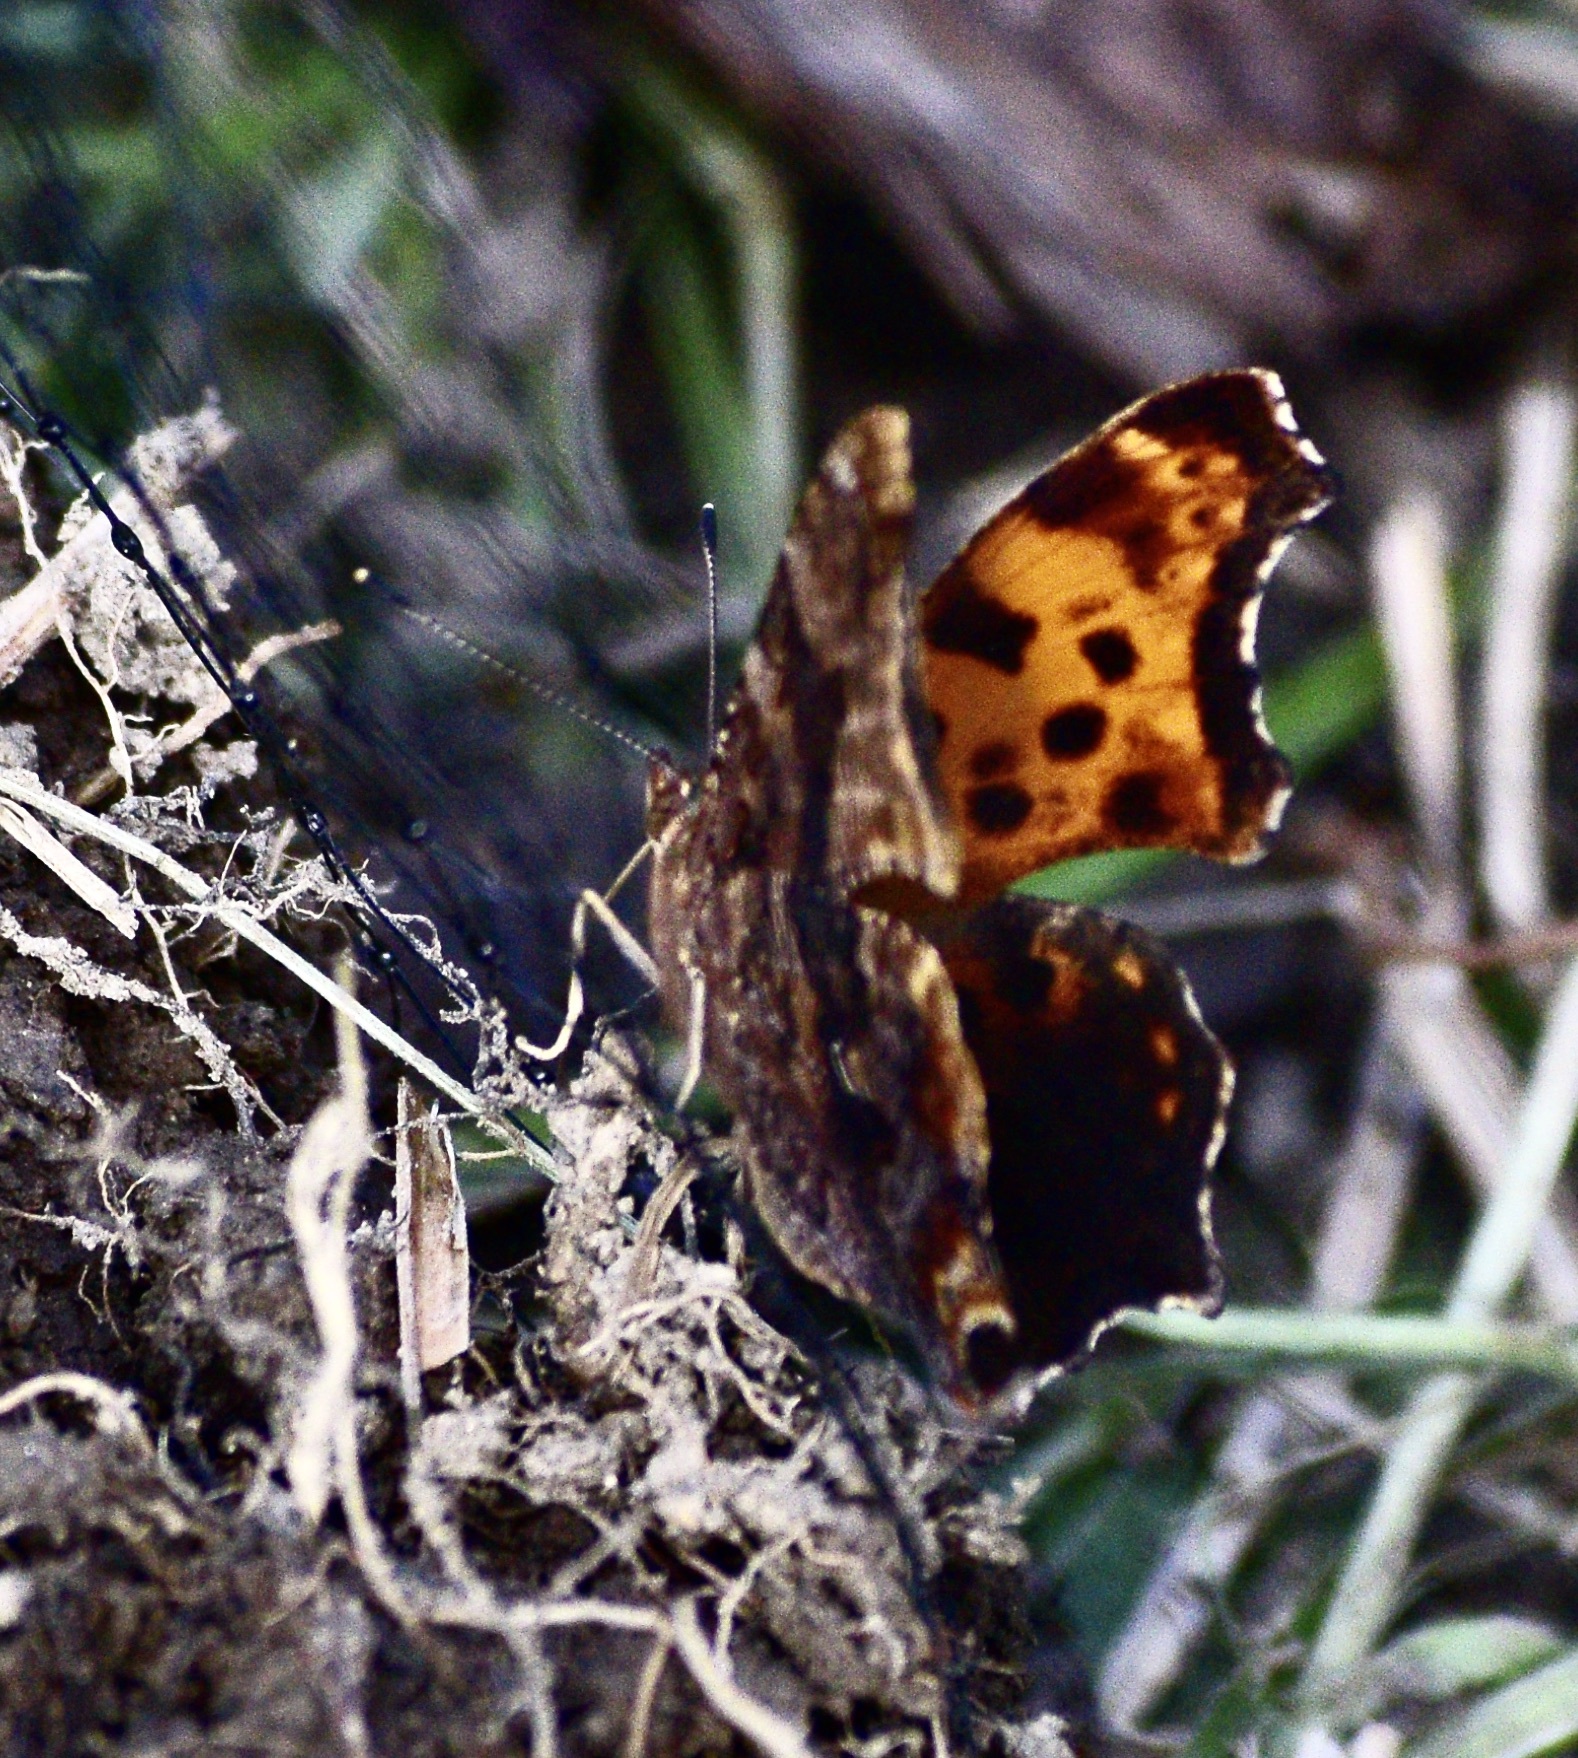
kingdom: Animalia
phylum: Arthropoda
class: Insecta
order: Lepidoptera
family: Nymphalidae
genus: Polygonia
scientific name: Polygonia interrogationis
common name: Question mark
